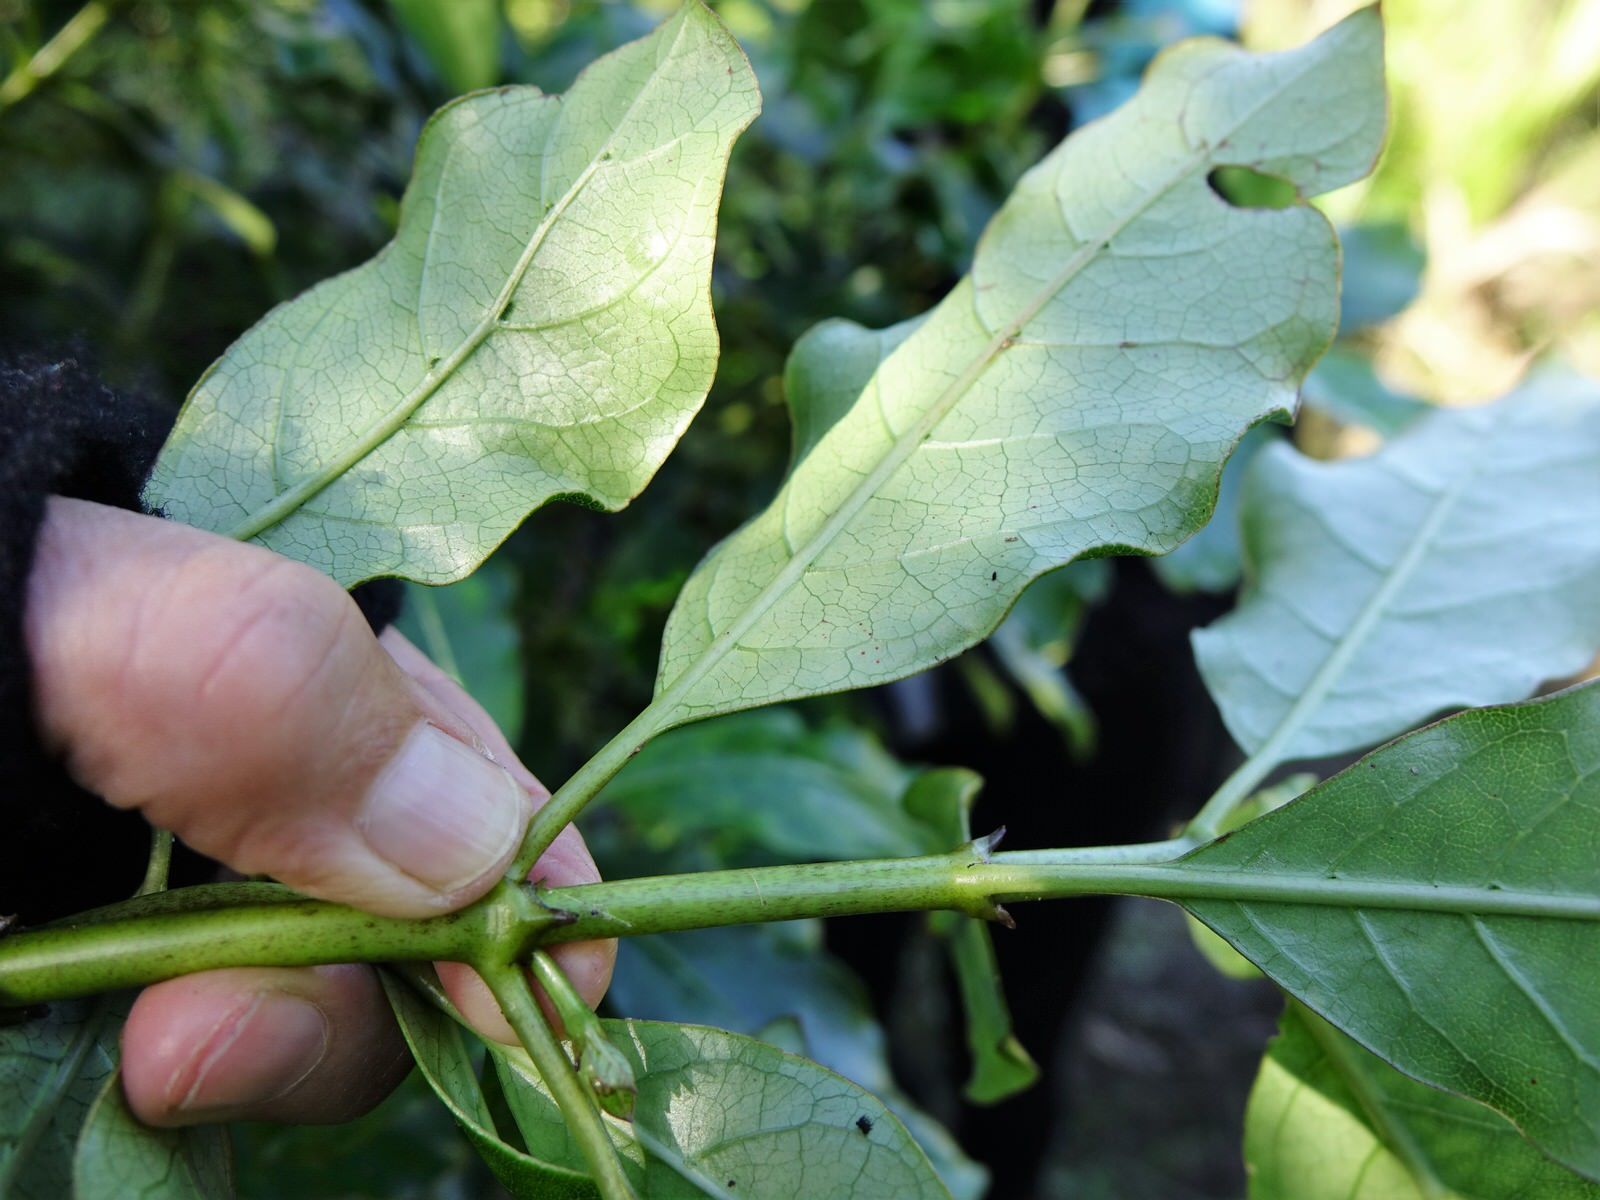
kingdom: Plantae
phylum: Tracheophyta
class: Magnoliopsida
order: Gentianales
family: Rubiaceae
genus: Coprosma
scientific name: Coprosma autumnalis
